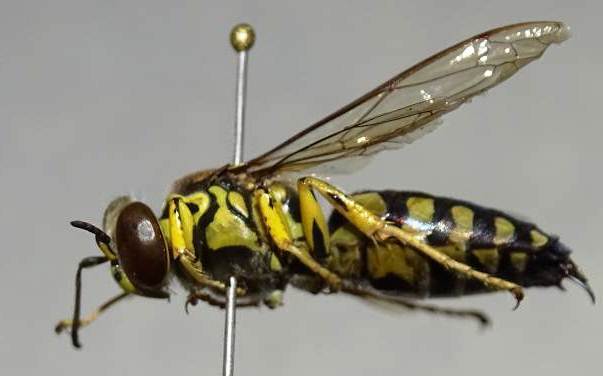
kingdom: Animalia
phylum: Arthropoda
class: Insecta
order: Hymenoptera
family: Crabronidae
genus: Stictia
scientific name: Stictia maculata
